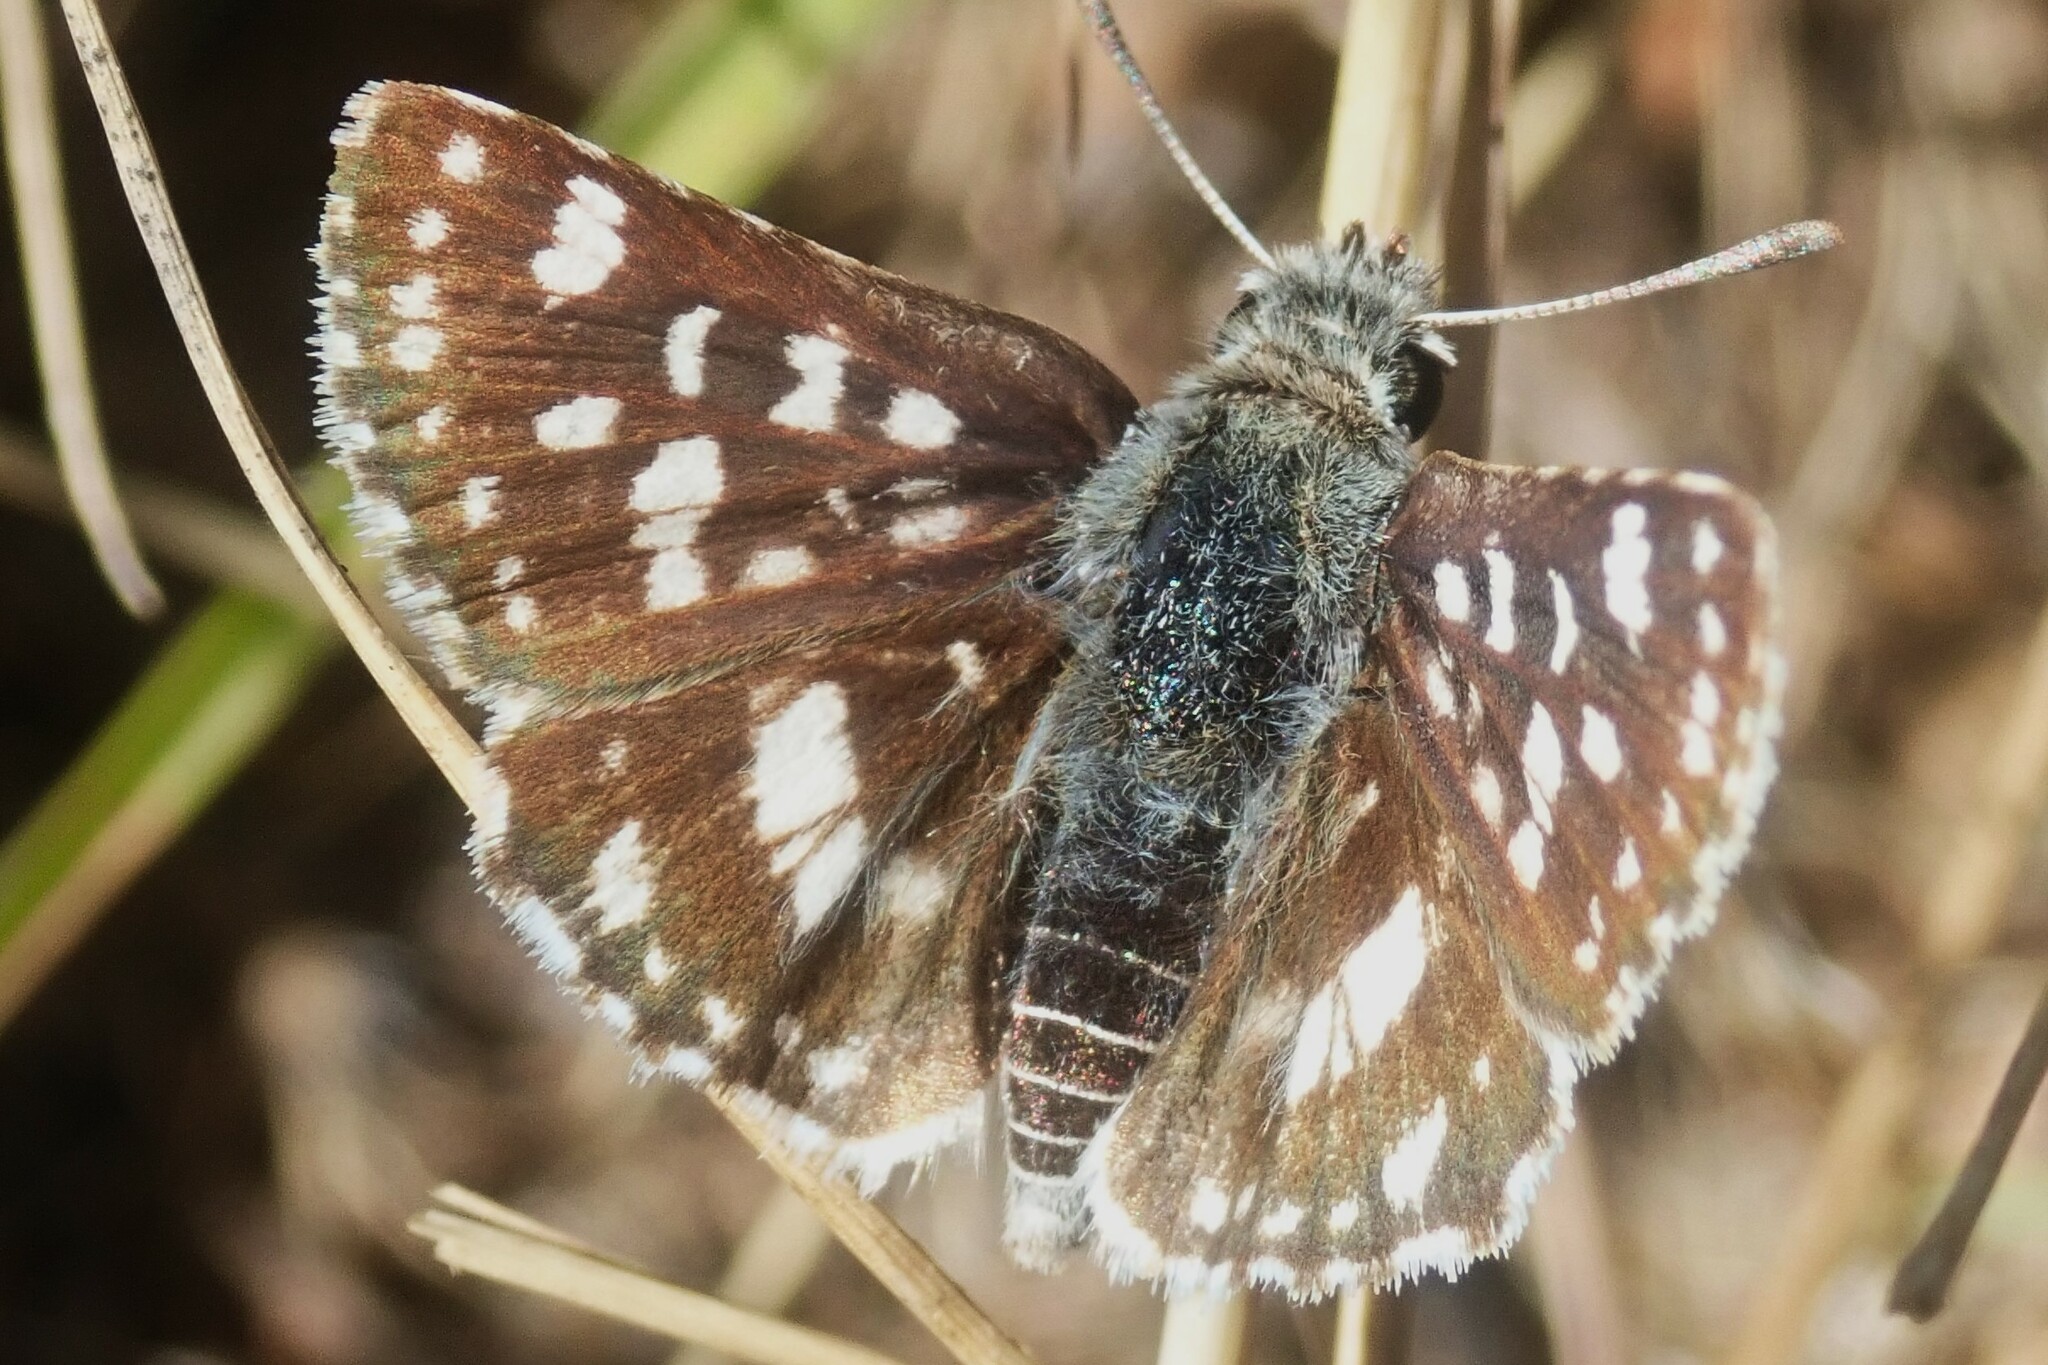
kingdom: Animalia
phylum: Arthropoda
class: Insecta
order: Lepidoptera
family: Hesperiidae
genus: Spialia
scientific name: Spialia diomus
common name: Common sandman
